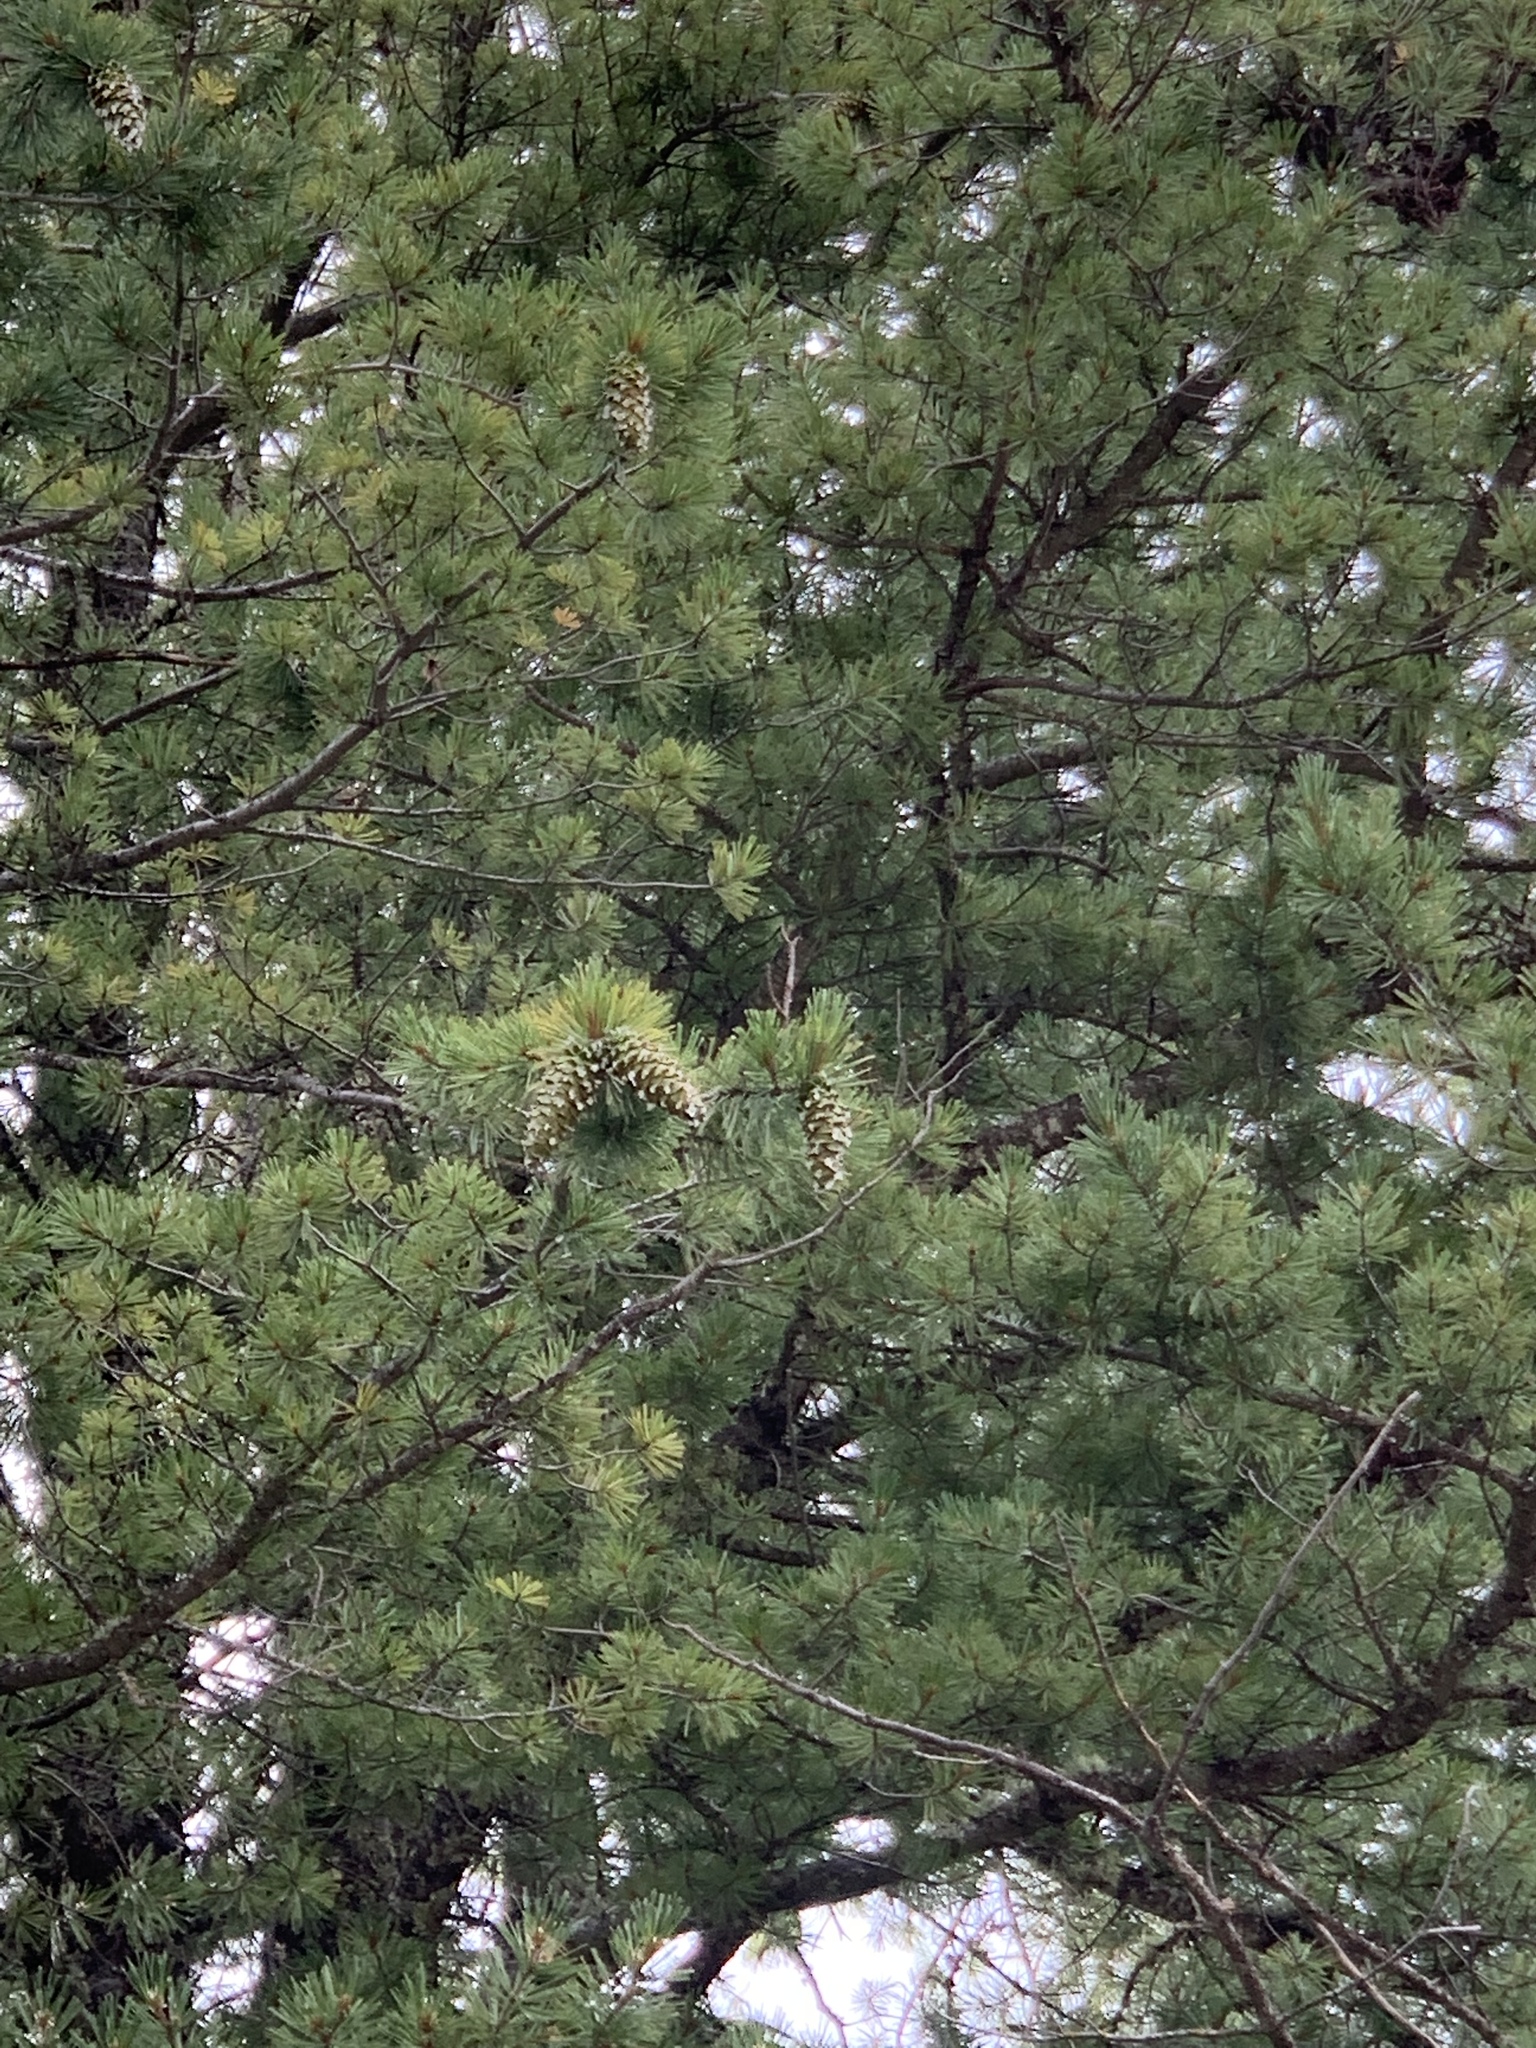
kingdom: Plantae
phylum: Tracheophyta
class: Pinopsida
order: Pinales
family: Pinaceae
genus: Pinus
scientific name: Pinus strobiformis
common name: Southwestern white pine
